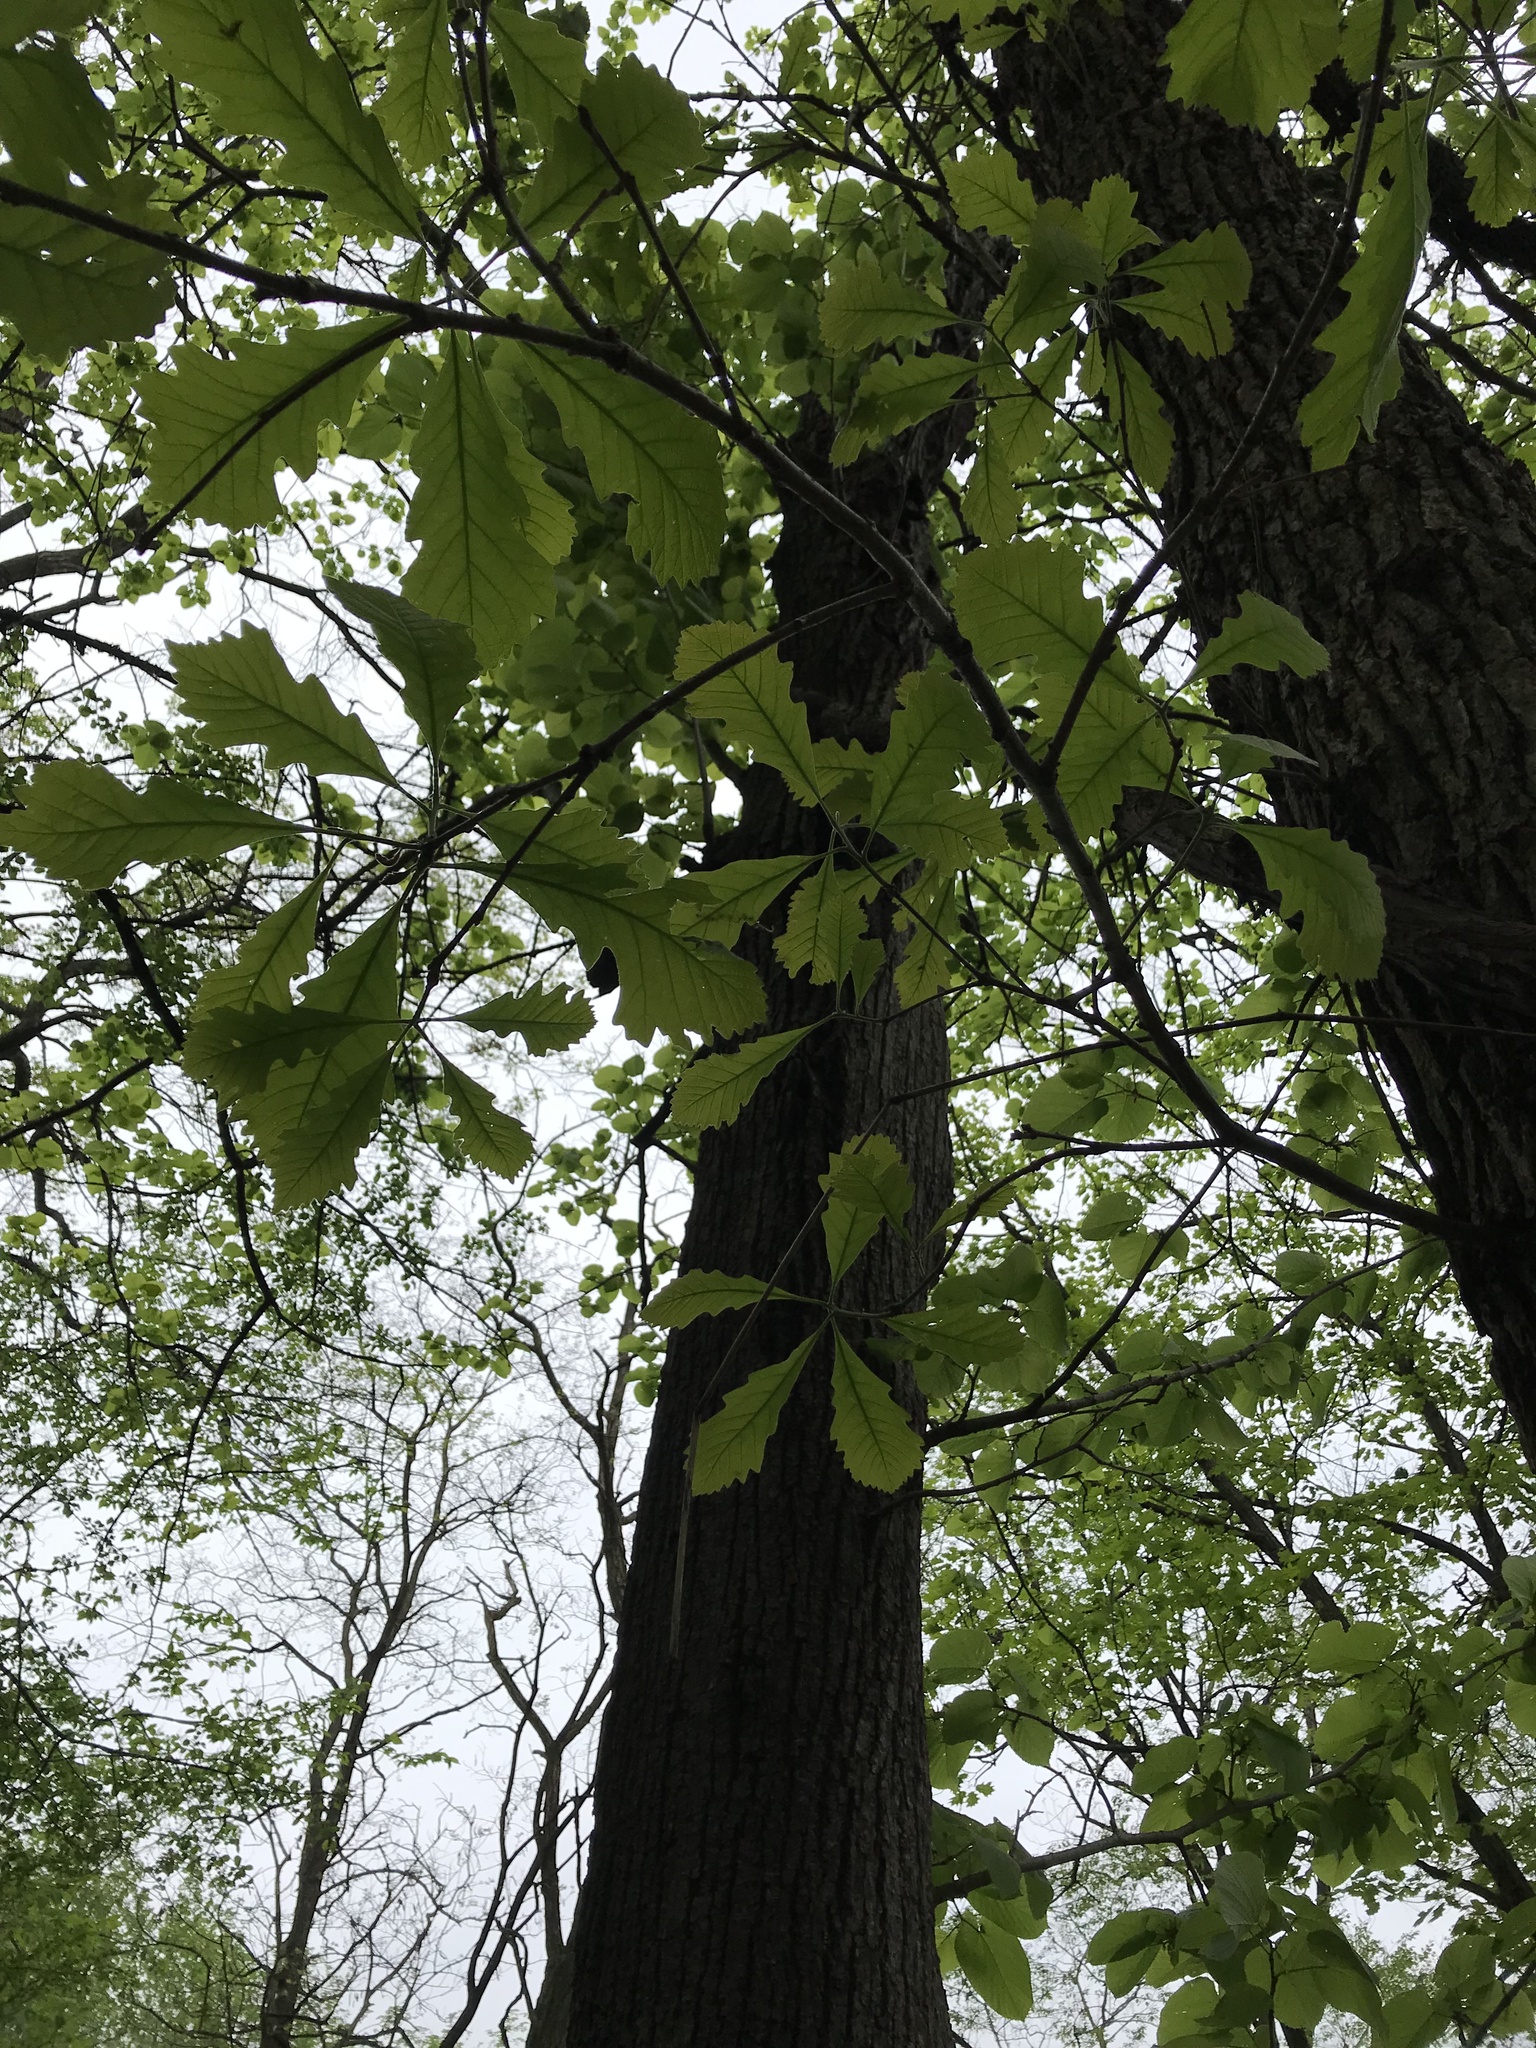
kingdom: Plantae
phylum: Tracheophyta
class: Magnoliopsida
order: Fagales
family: Fagaceae
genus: Quercus
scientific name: Quercus bicolor
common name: Swamp white oak
